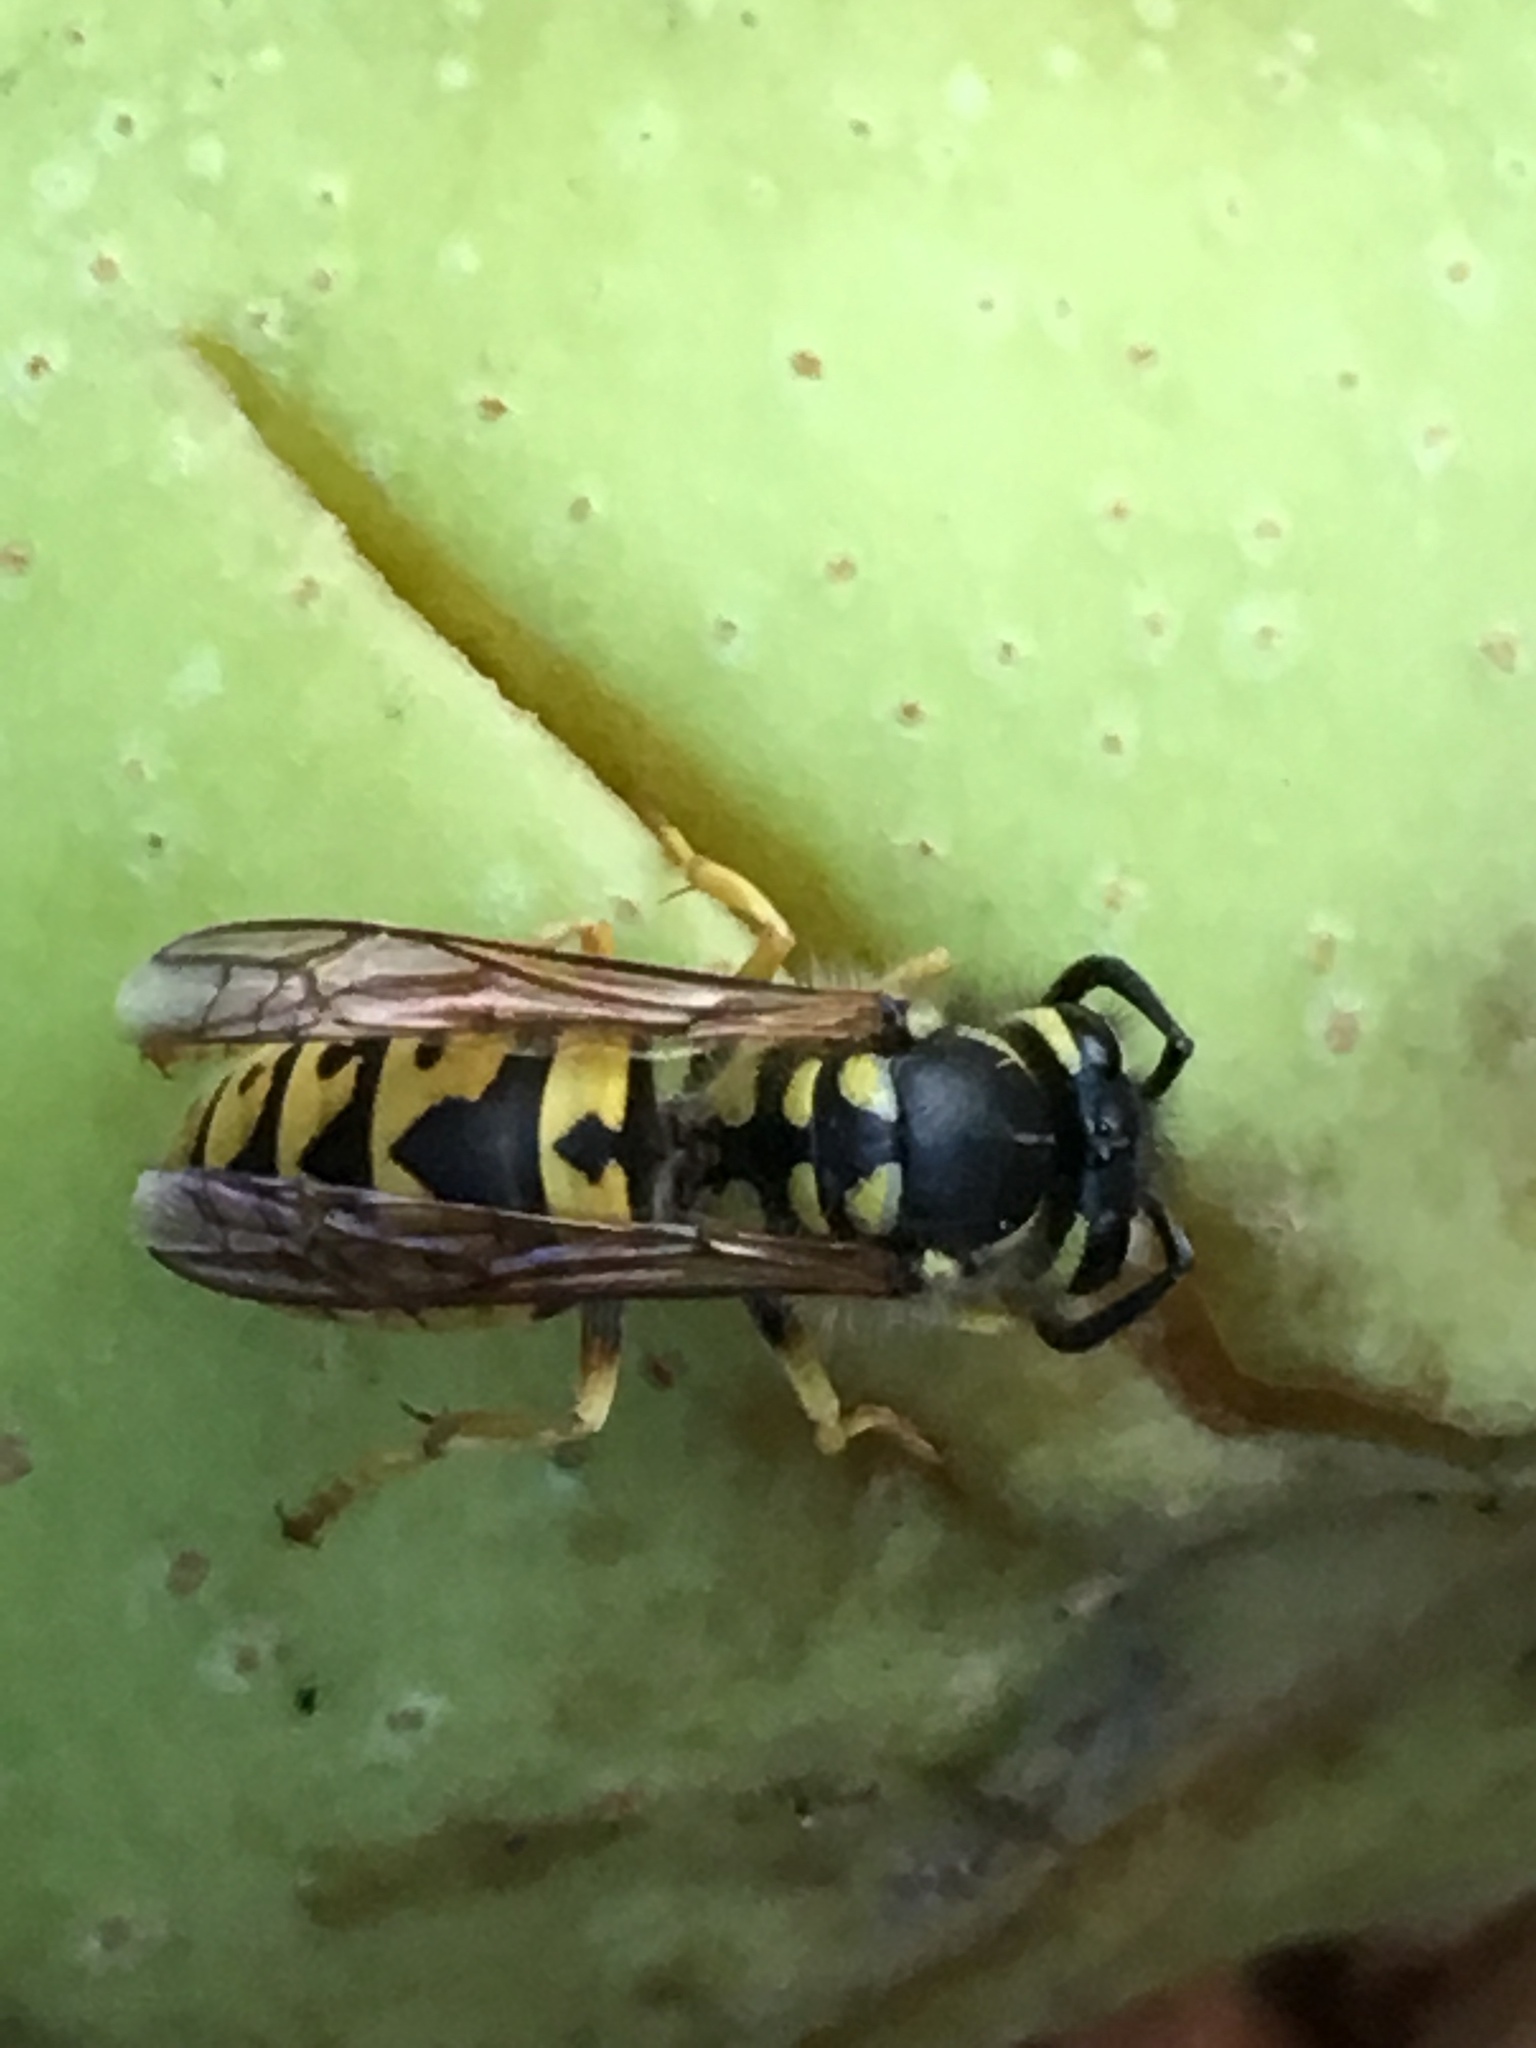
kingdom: Animalia
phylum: Arthropoda
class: Insecta
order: Hymenoptera
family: Vespidae
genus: Vespula
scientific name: Vespula germanica
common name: German wasp
